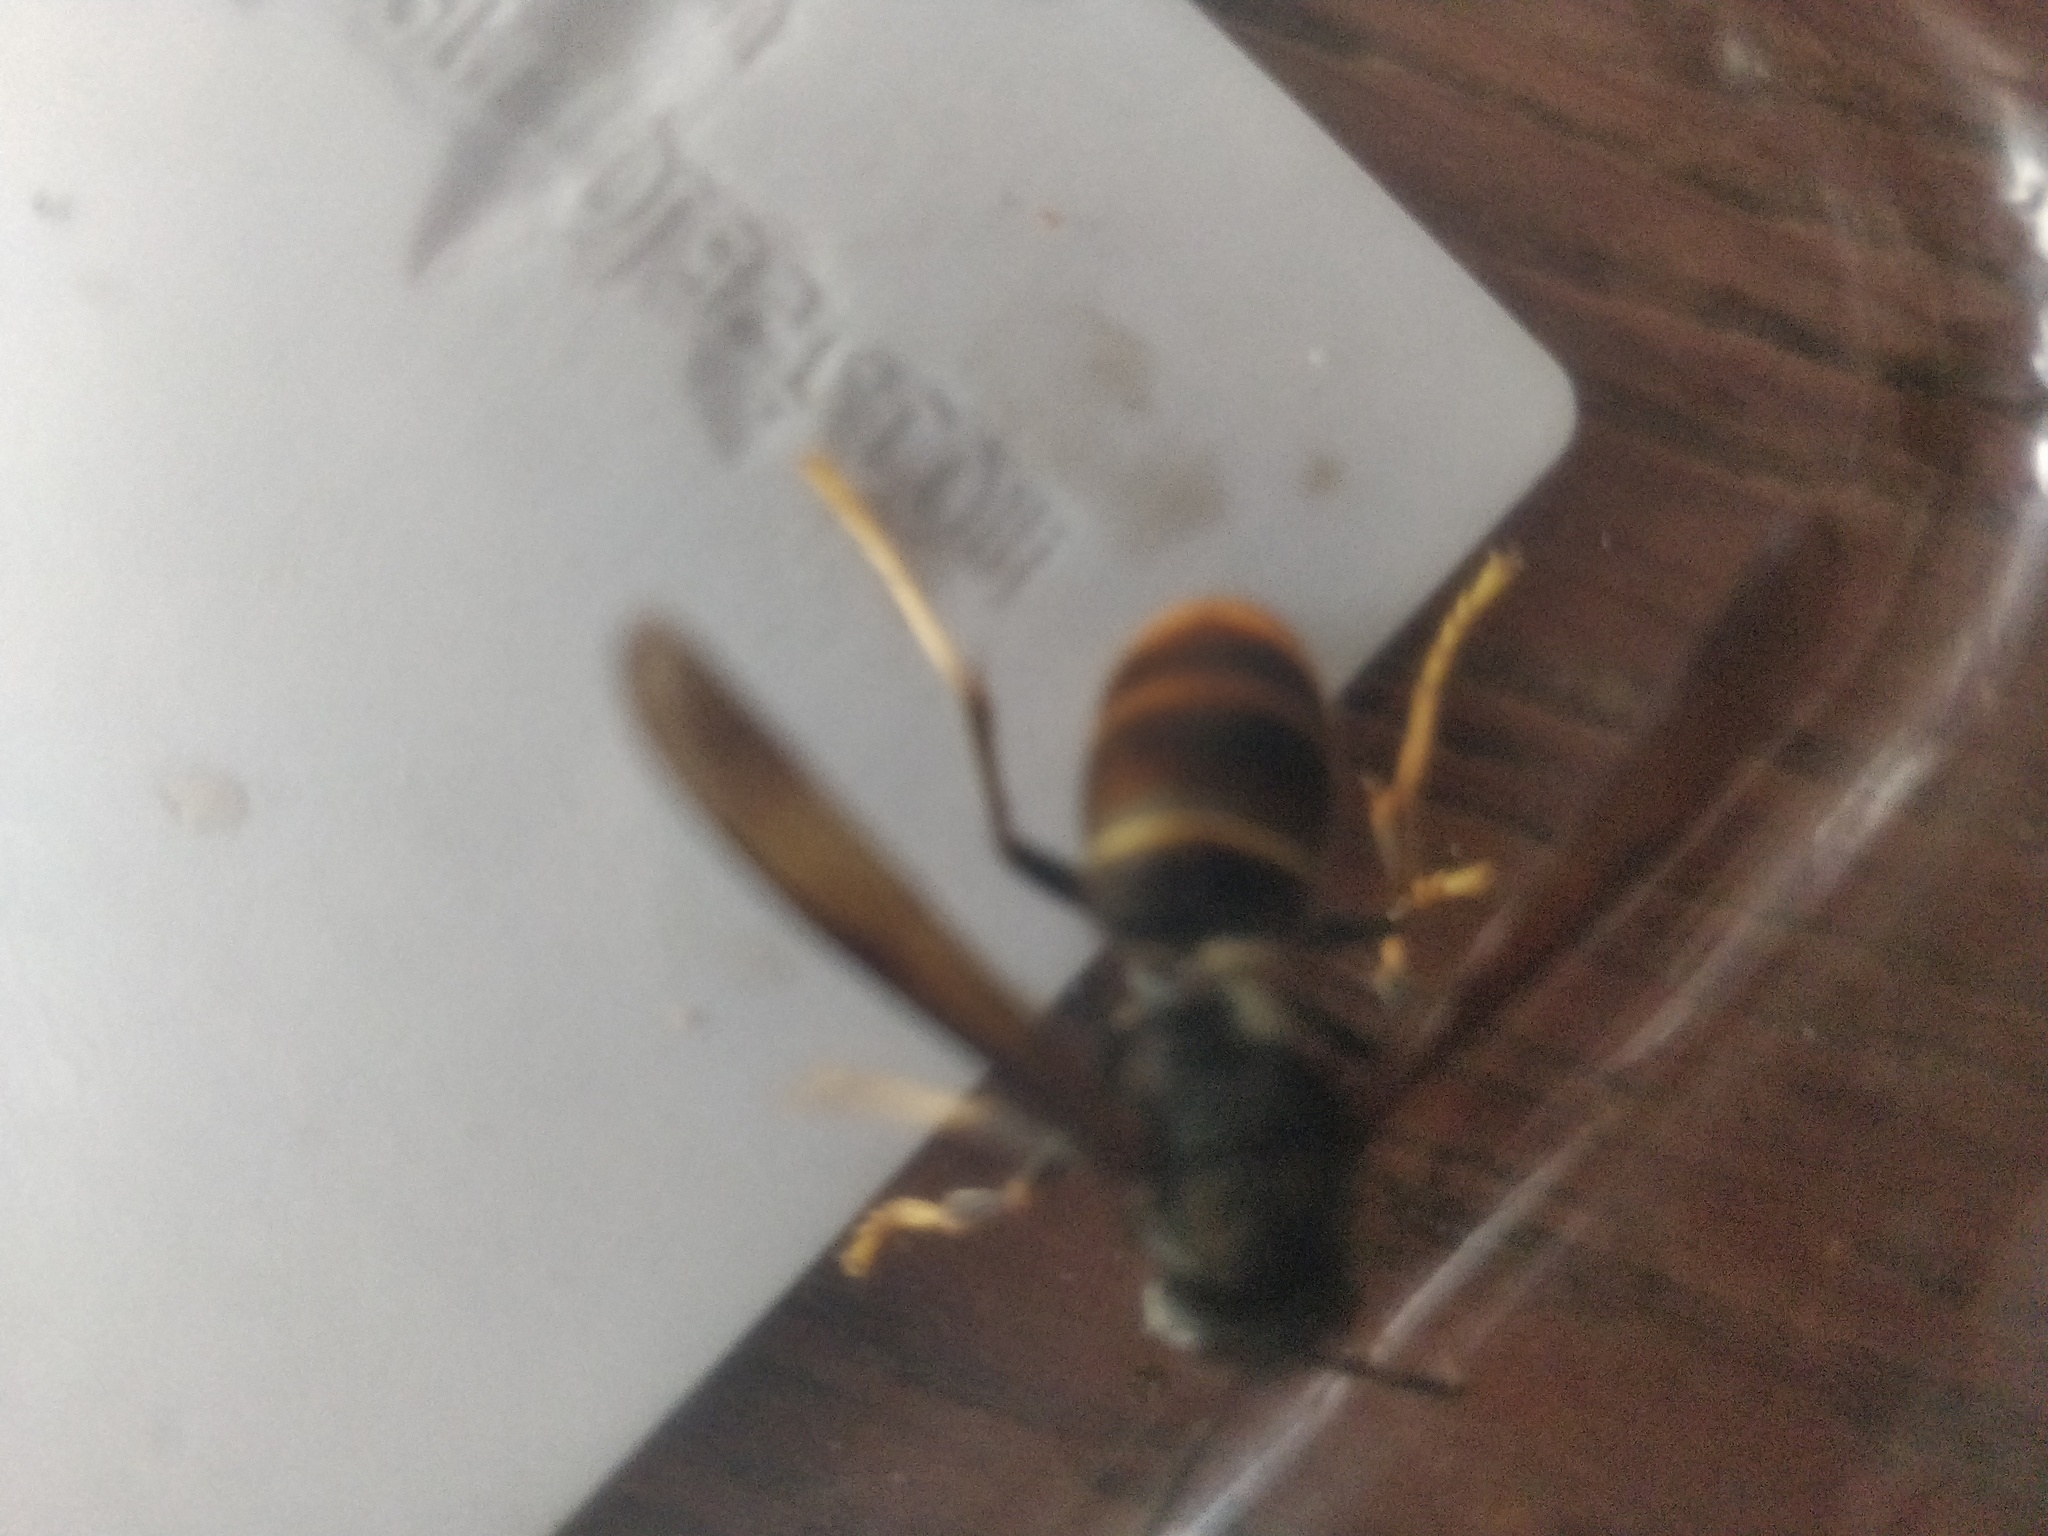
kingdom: Animalia
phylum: Arthropoda
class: Insecta
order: Hymenoptera
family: Vespidae
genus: Vespa
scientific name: Vespa velutina
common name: Asian hornet
